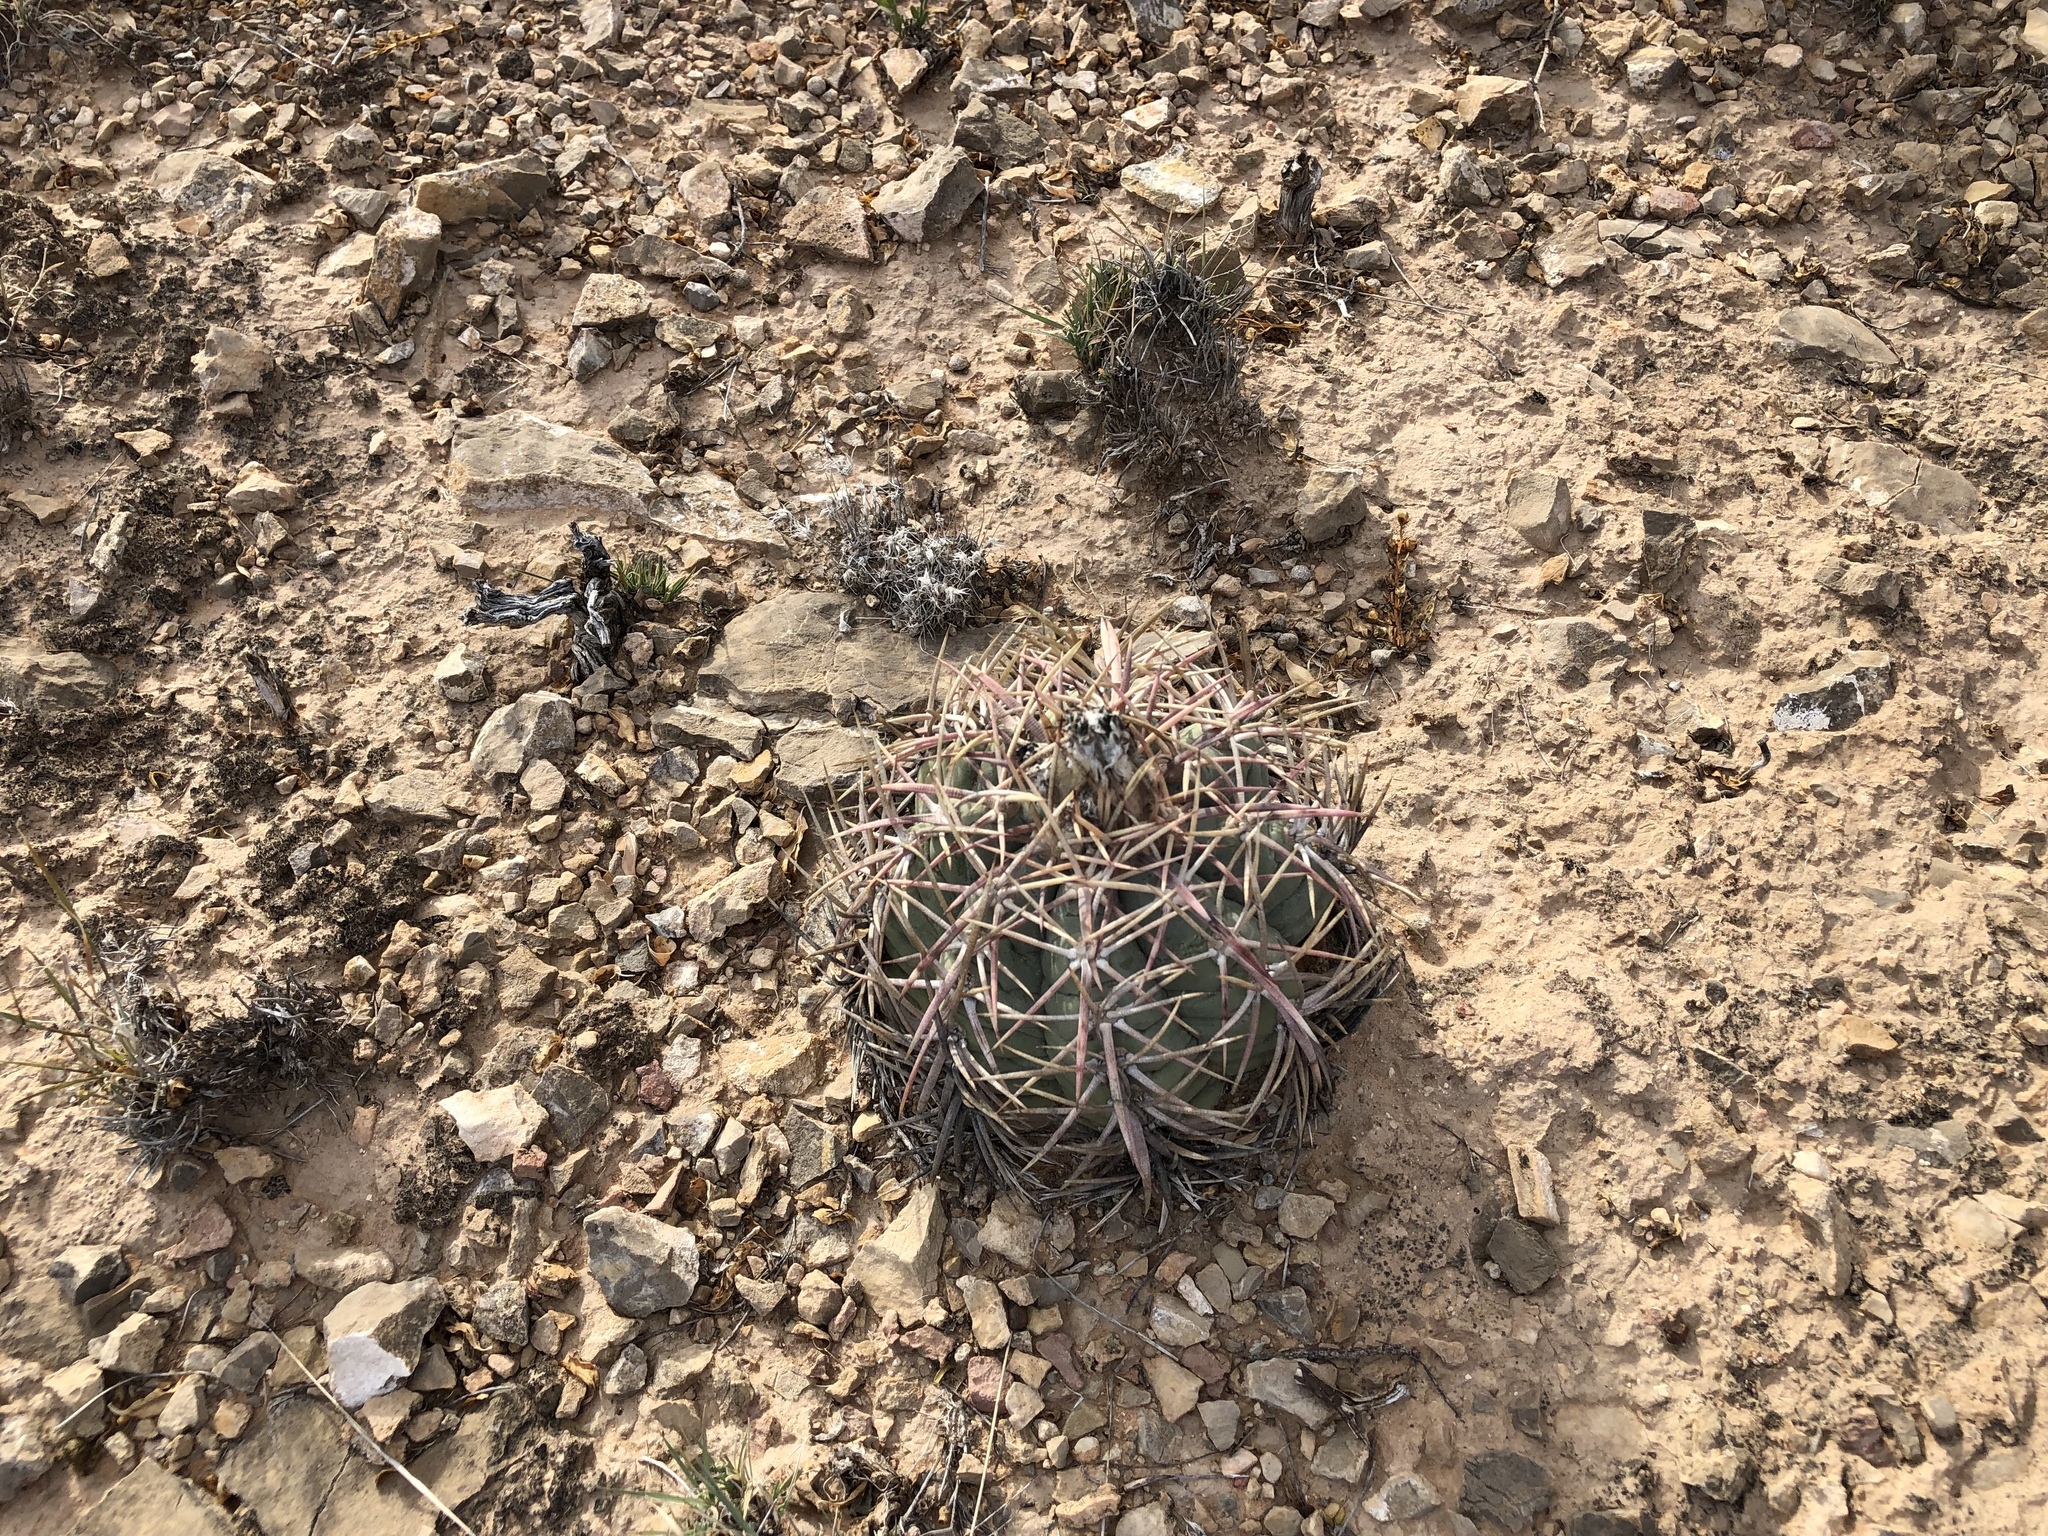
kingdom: Plantae
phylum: Tracheophyta
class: Magnoliopsida
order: Caryophyllales
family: Cactaceae
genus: Echinocactus
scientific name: Echinocactus horizonthalonius
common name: Devilshead
